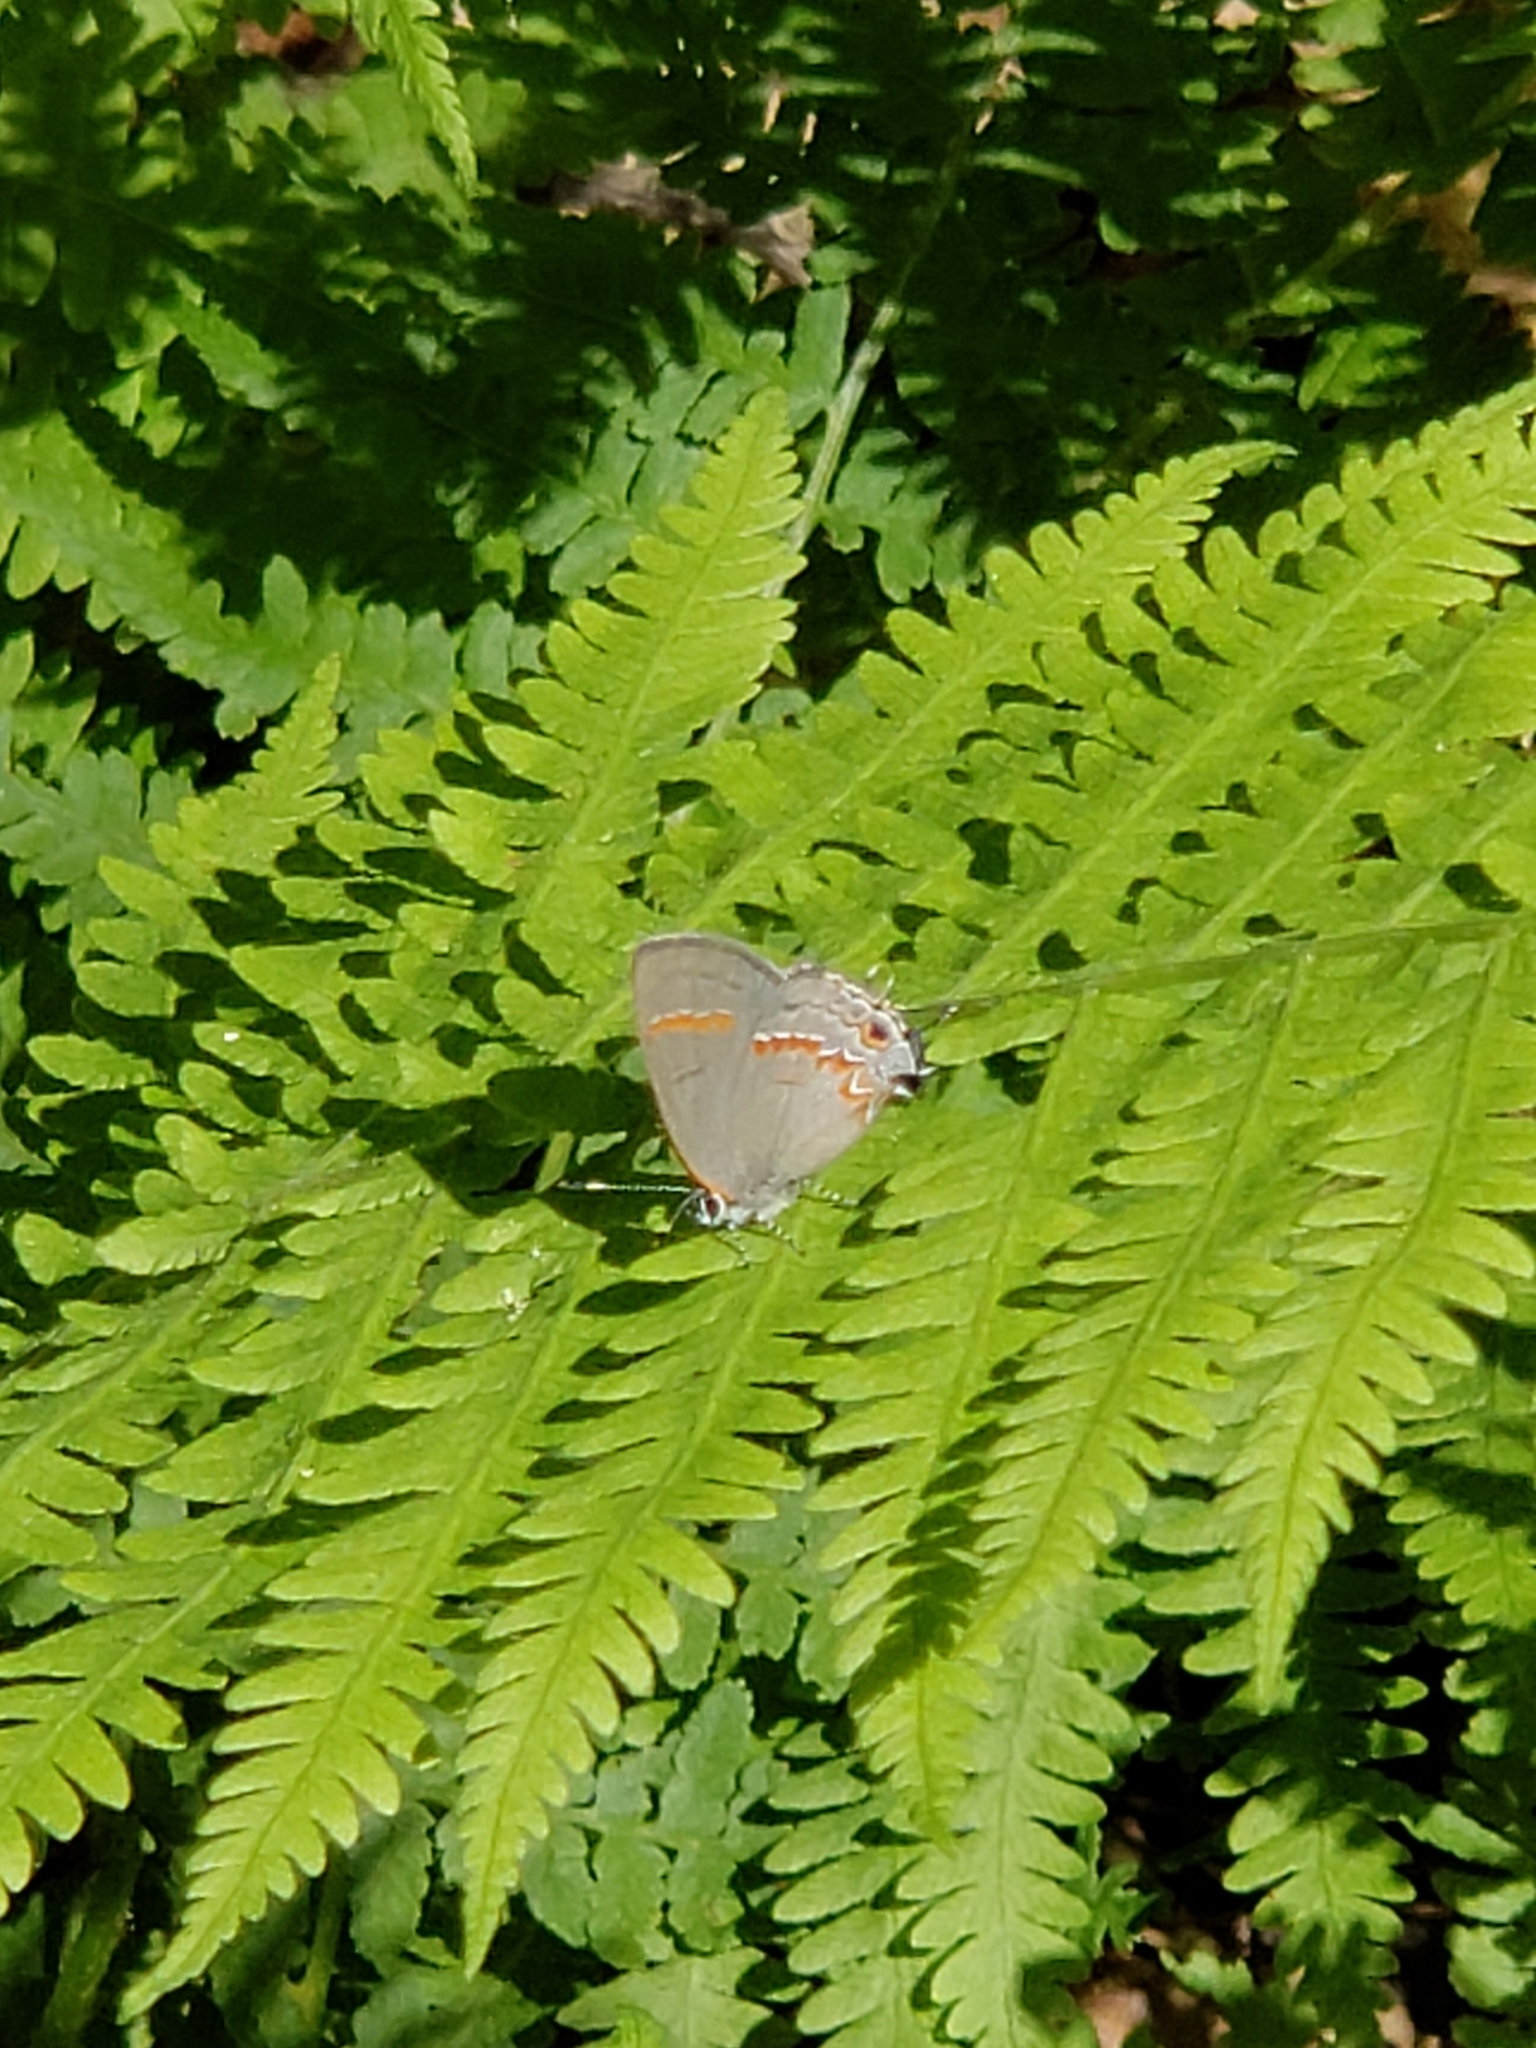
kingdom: Animalia
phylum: Arthropoda
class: Insecta
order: Lepidoptera
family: Lycaenidae
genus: Calycopis
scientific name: Calycopis cecrops
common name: Red-banded hairstreak
